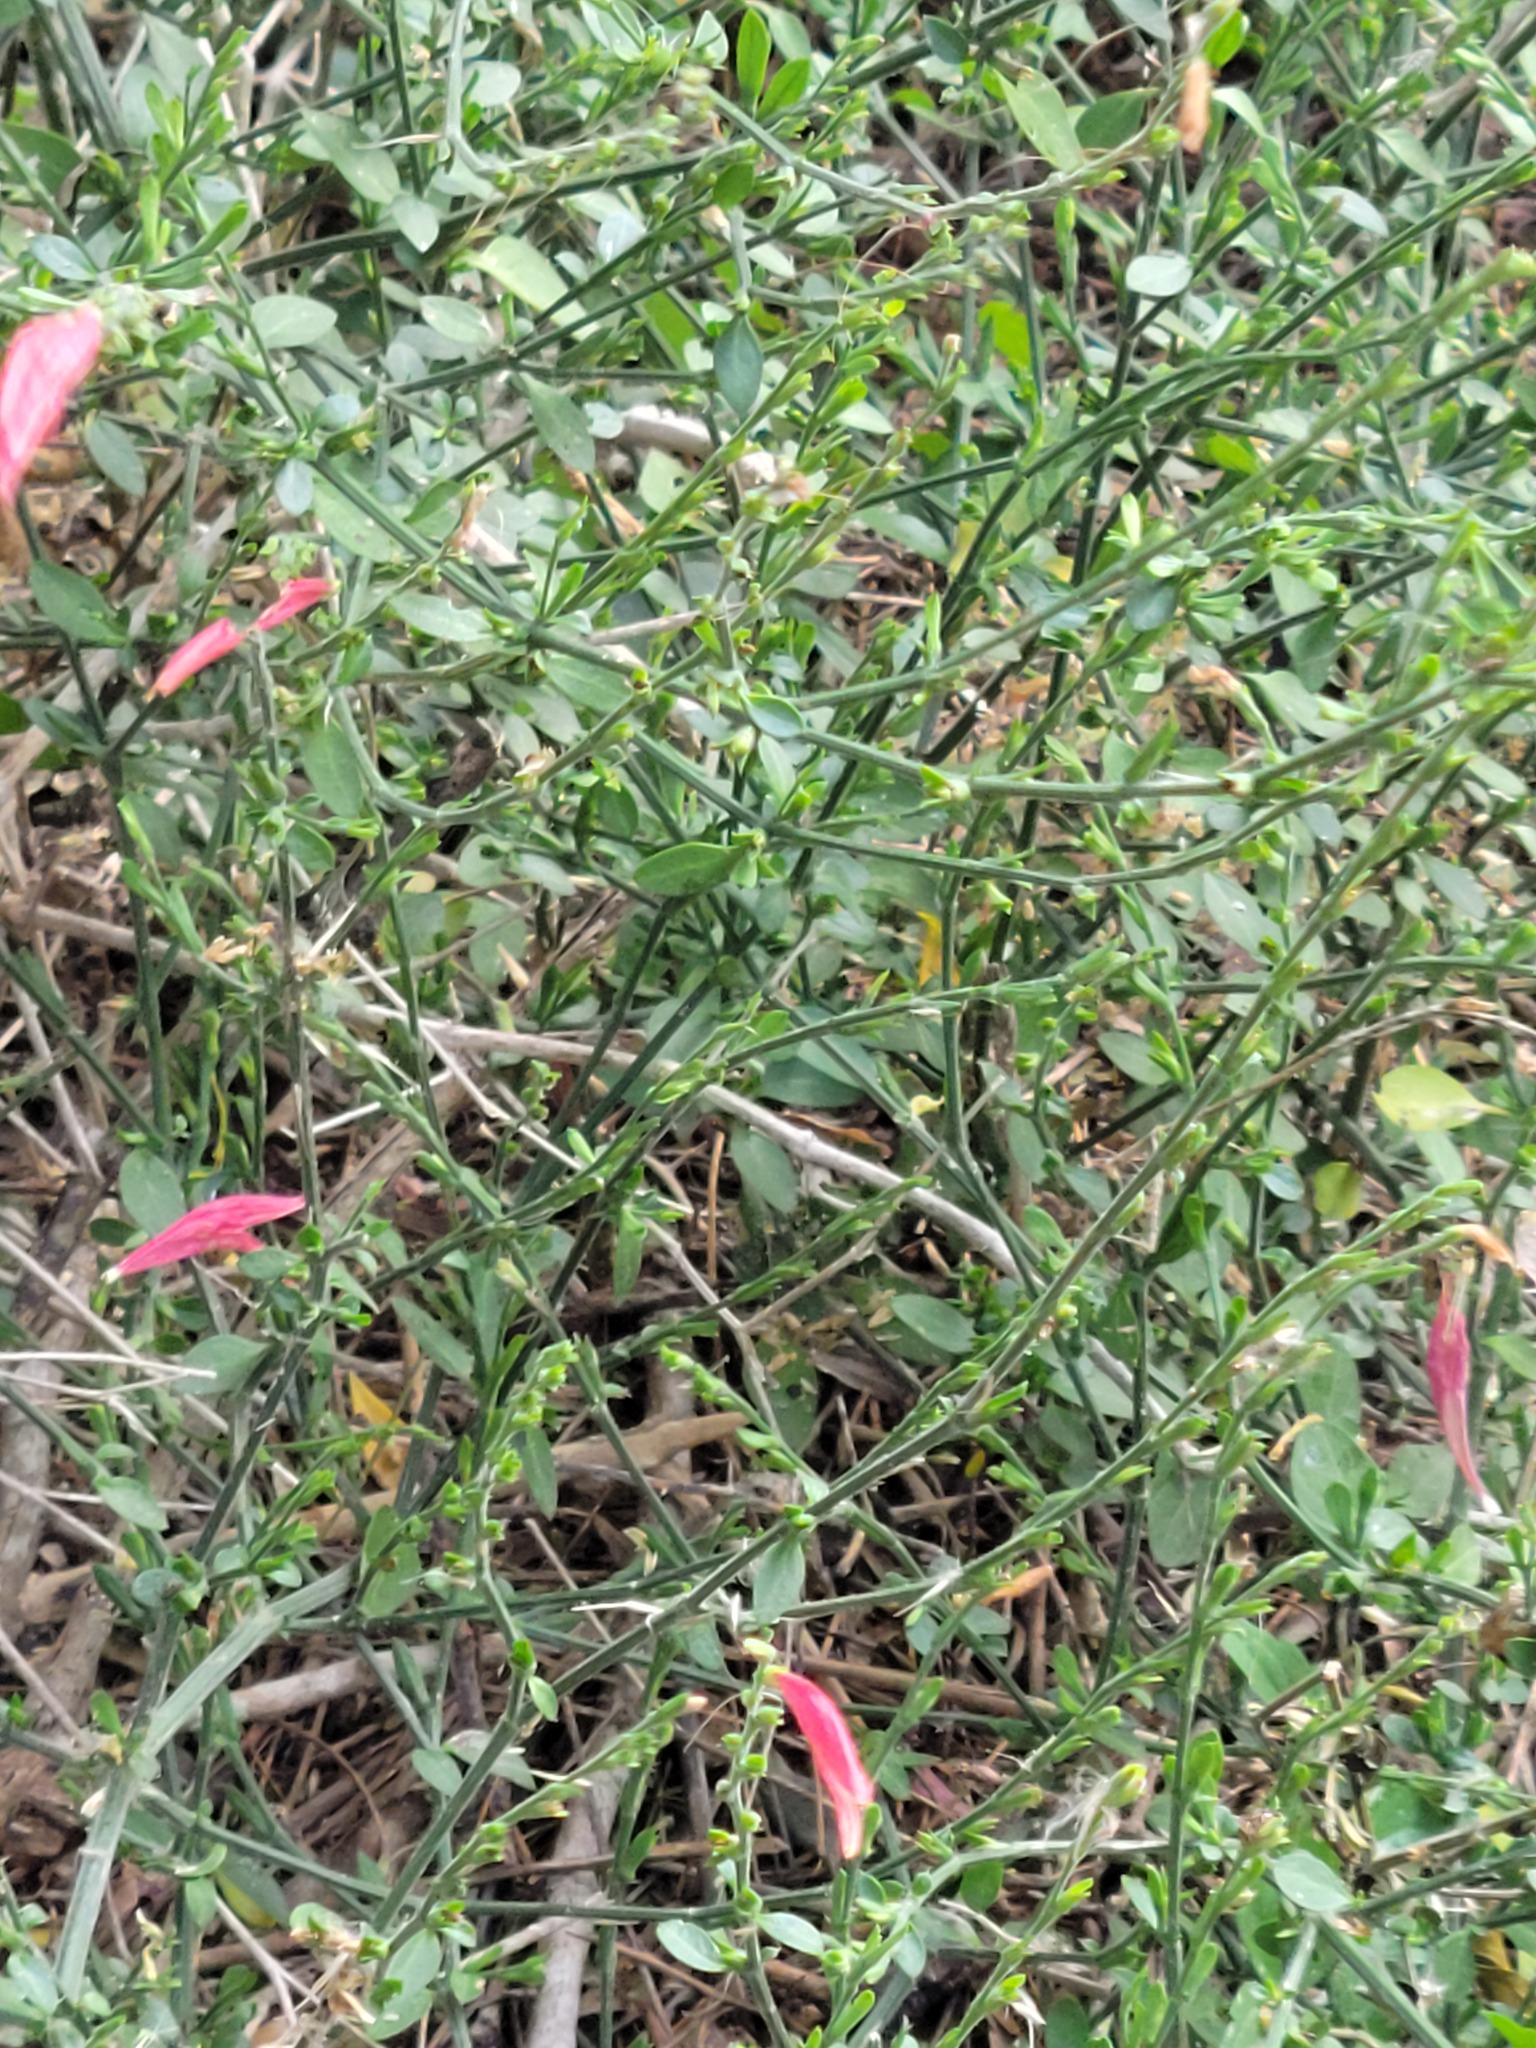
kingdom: Plantae
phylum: Tracheophyta
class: Magnoliopsida
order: Lamiales
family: Acanthaceae
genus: Dicliptera
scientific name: Dicliptera sexangularis
